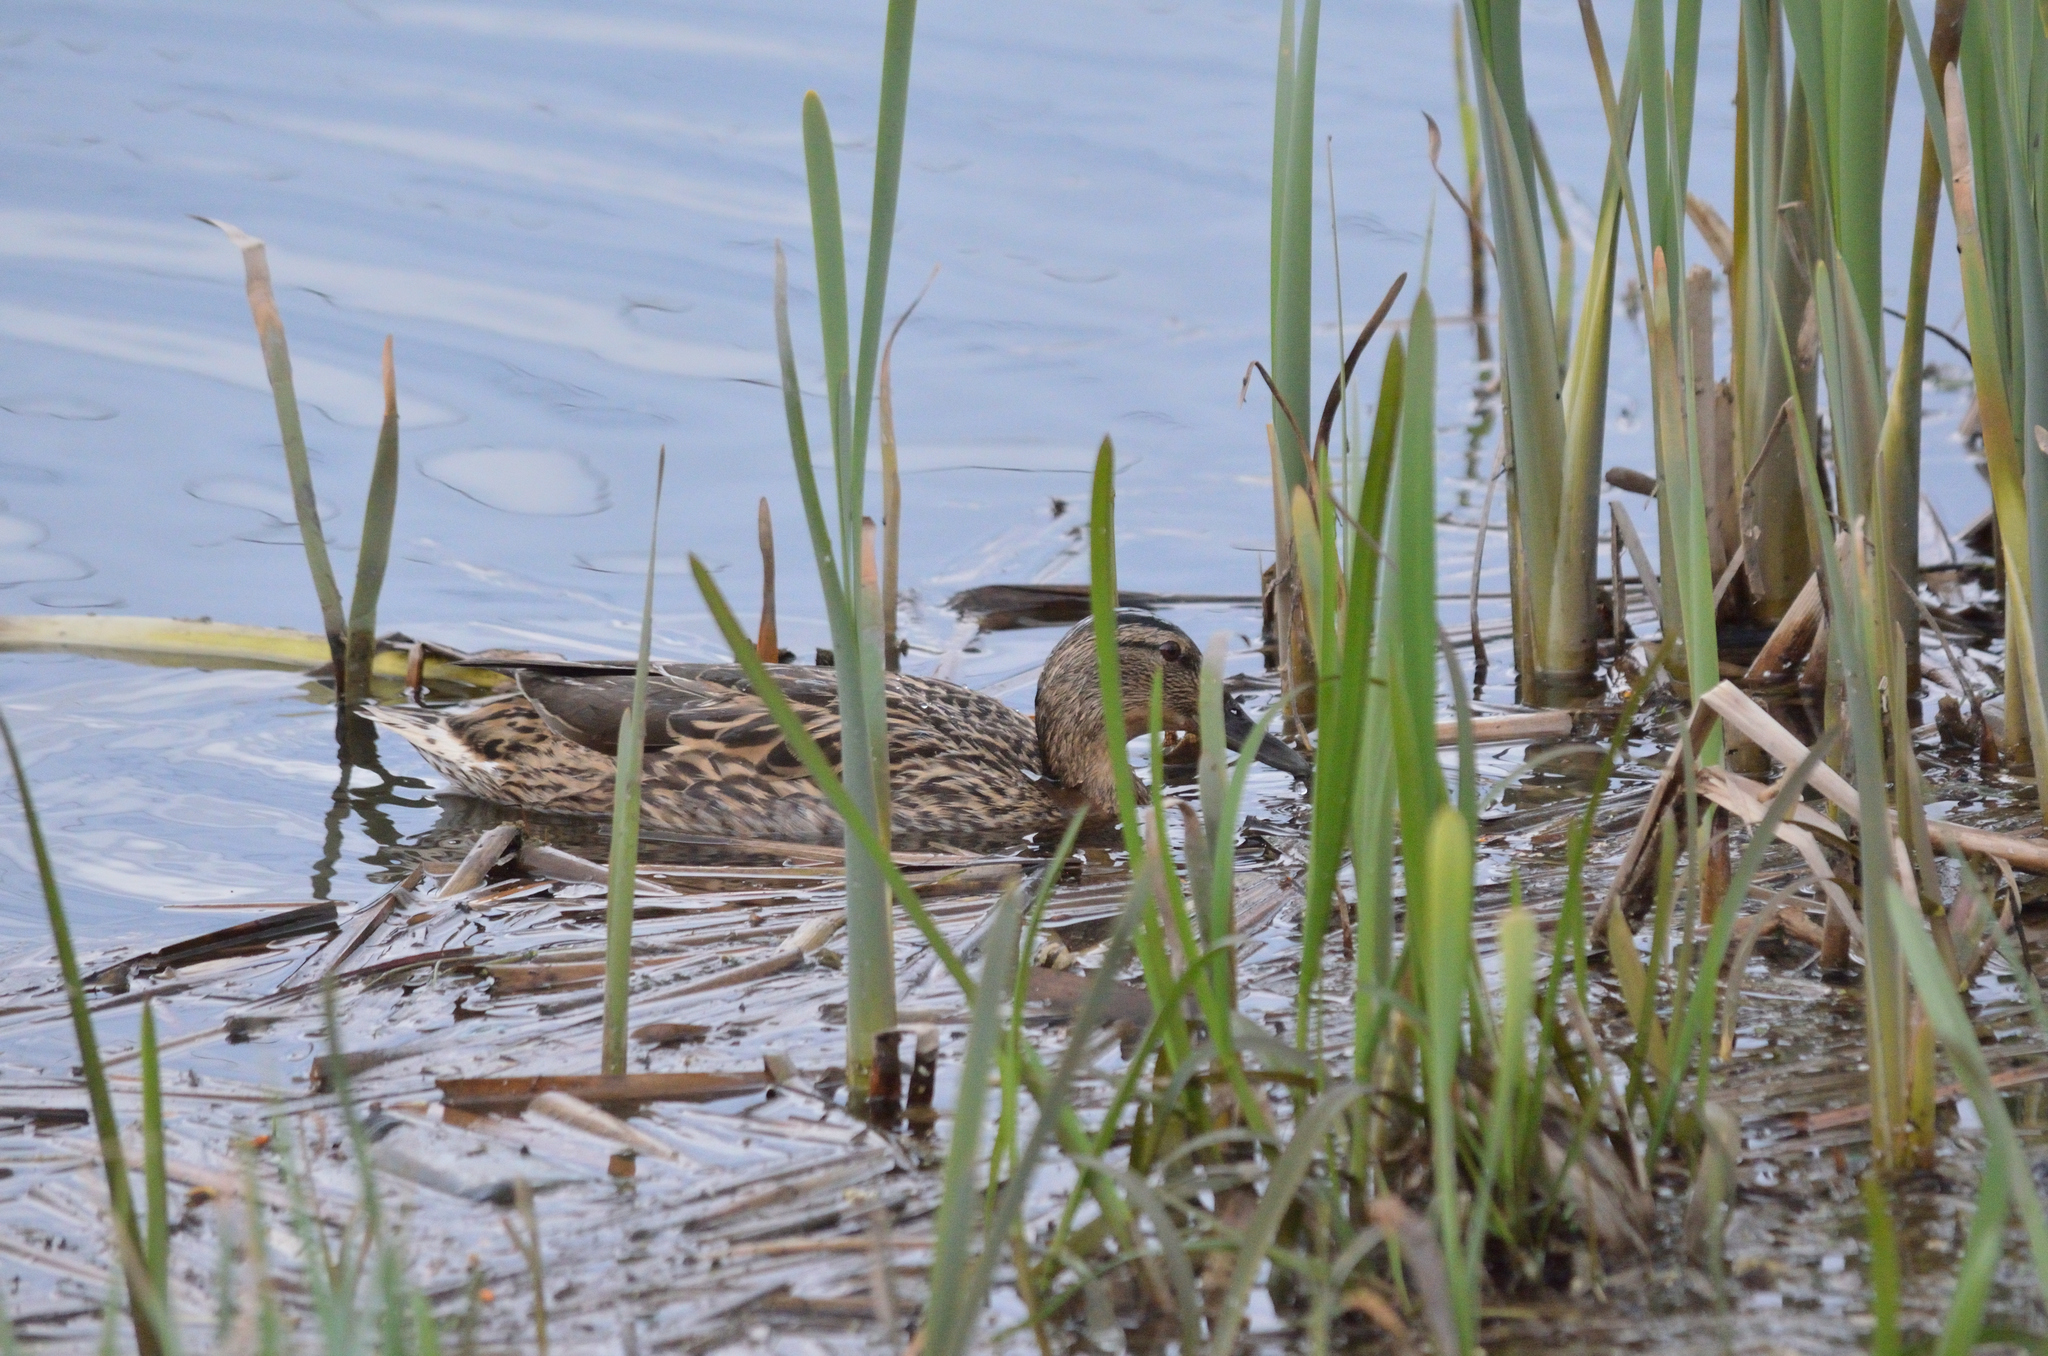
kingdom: Animalia
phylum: Chordata
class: Aves
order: Anseriformes
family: Anatidae
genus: Anas
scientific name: Anas platyrhynchos
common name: Mallard
